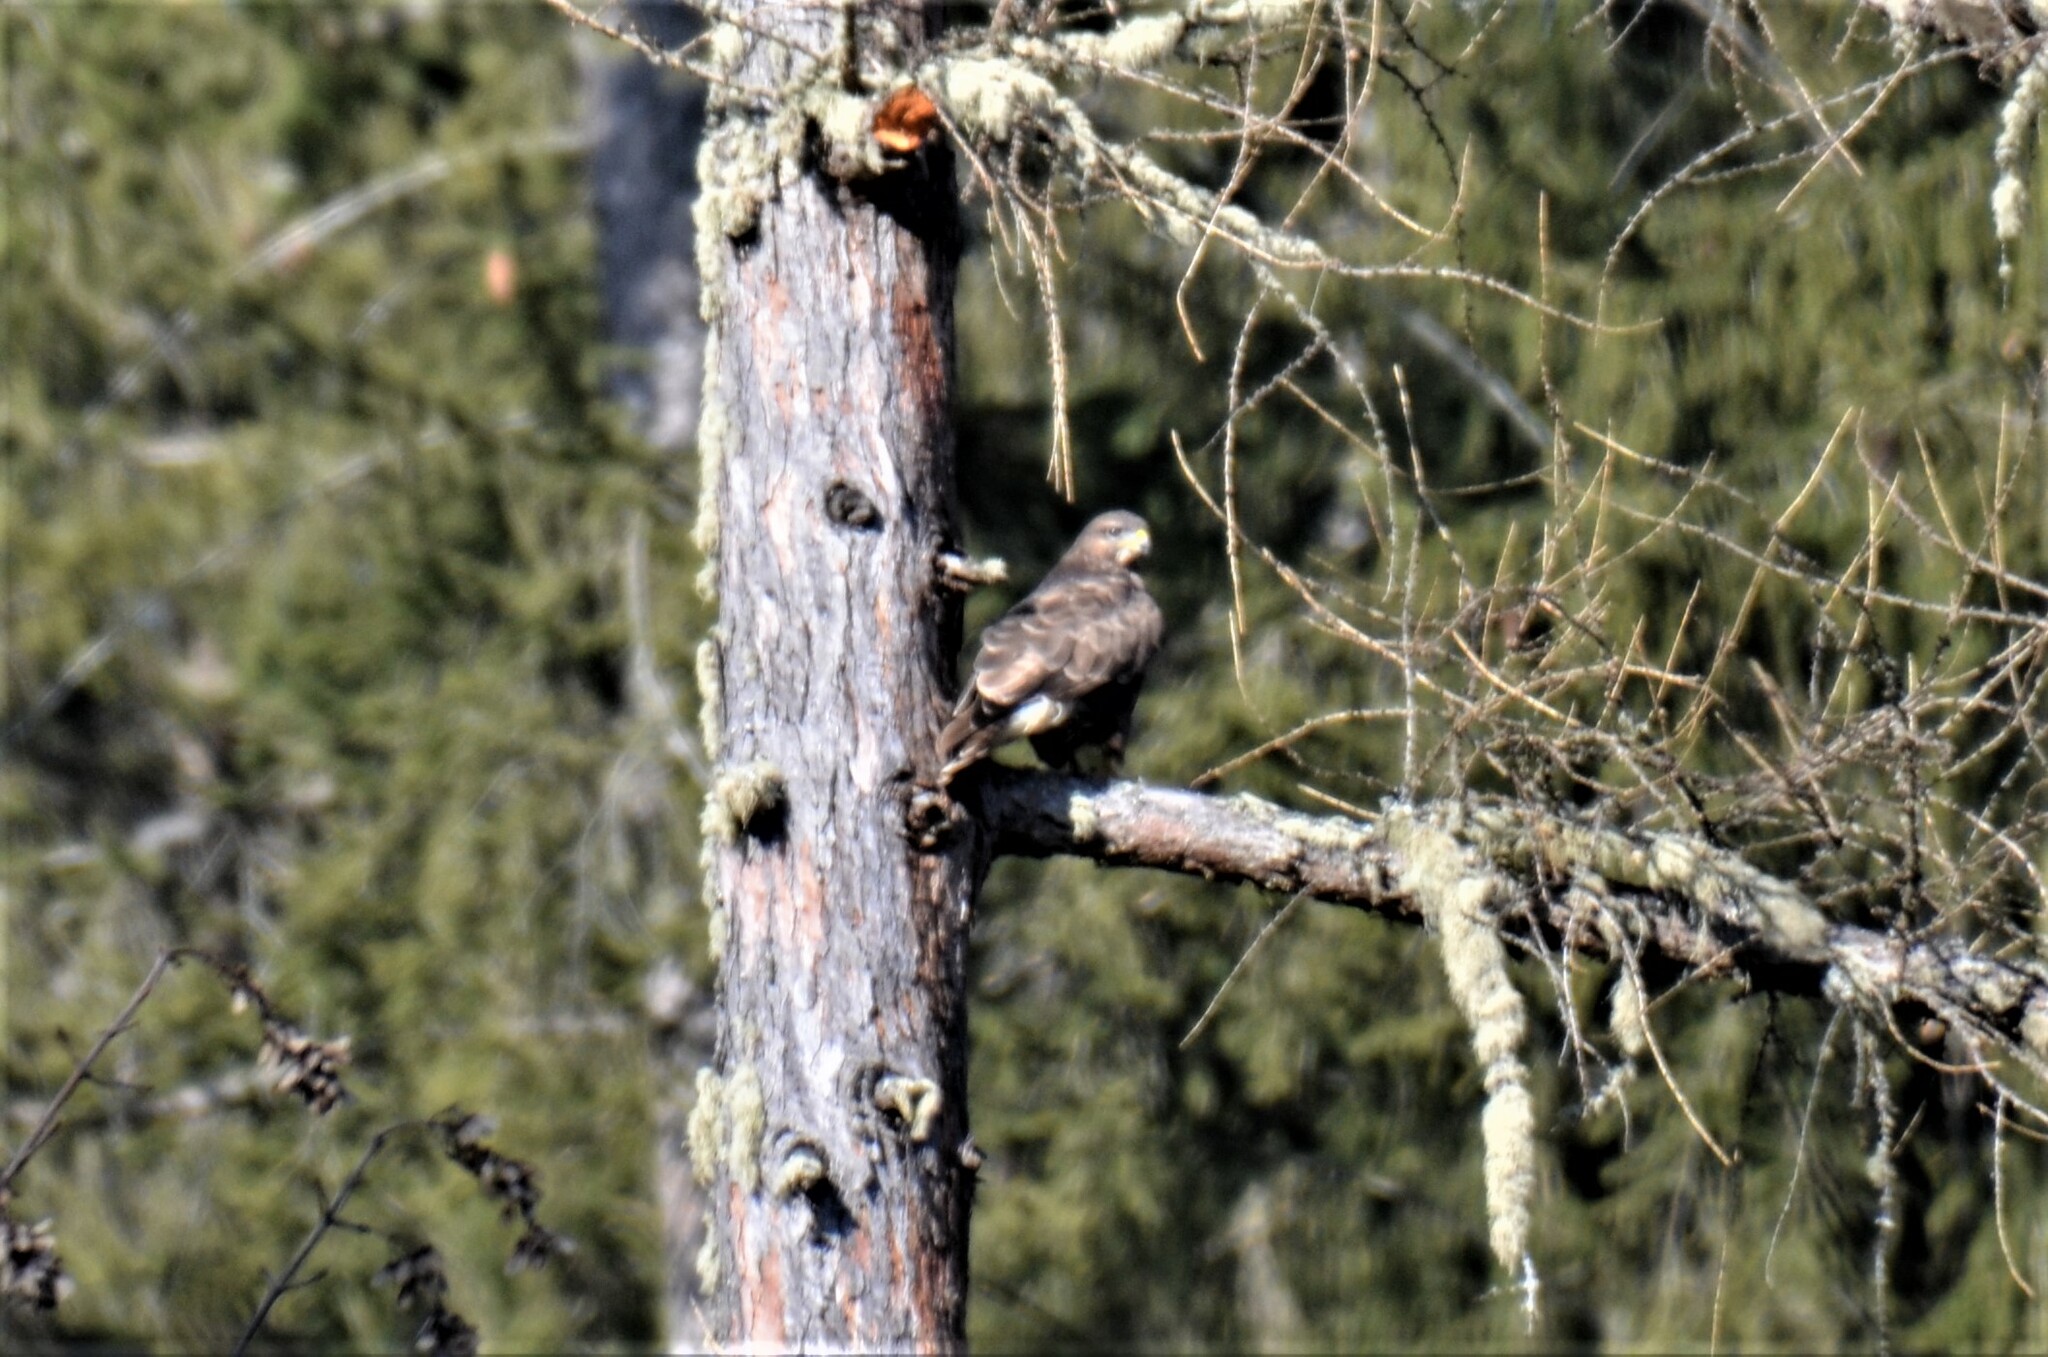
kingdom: Animalia
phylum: Chordata
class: Aves
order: Accipitriformes
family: Accipitridae
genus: Buteo
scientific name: Buteo buteo
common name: Common buzzard
